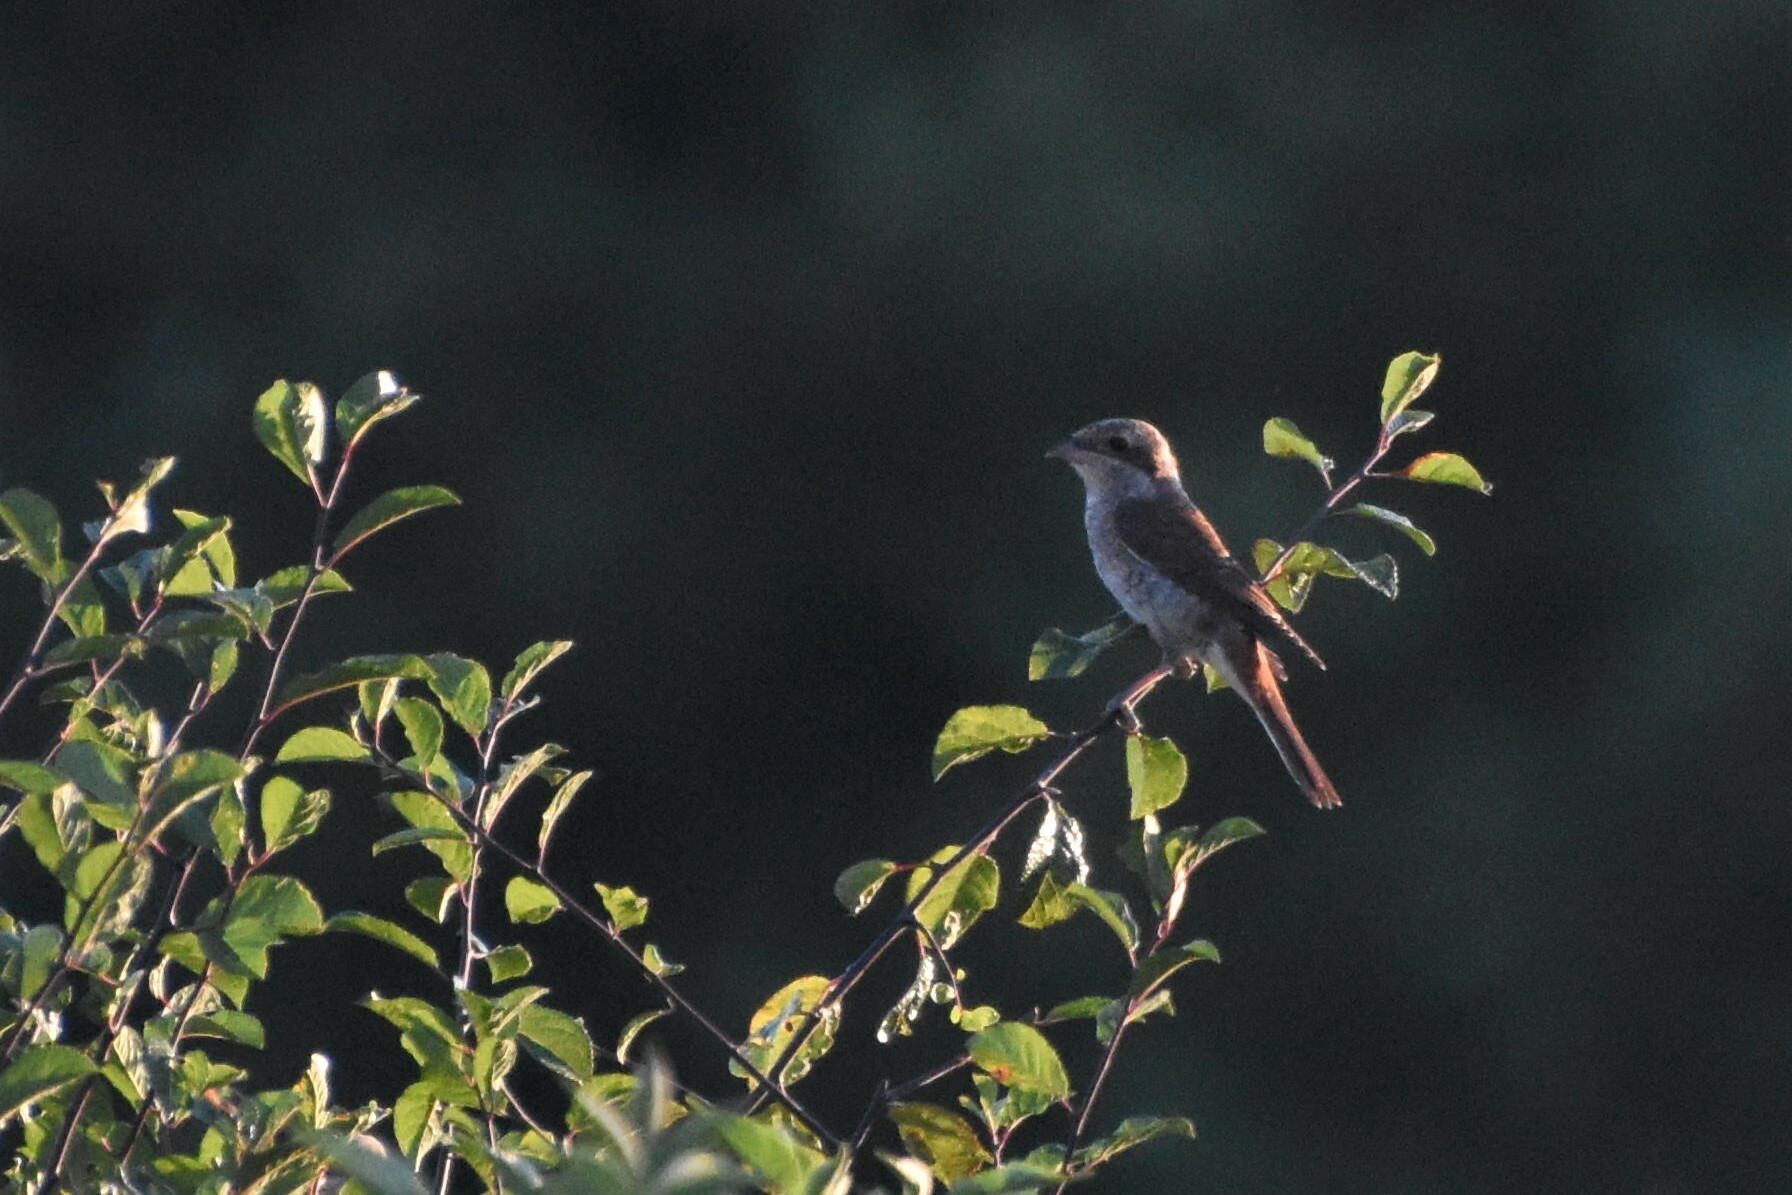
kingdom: Animalia
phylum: Chordata
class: Aves
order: Passeriformes
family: Laniidae
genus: Lanius
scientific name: Lanius collurio
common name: Red-backed shrike
